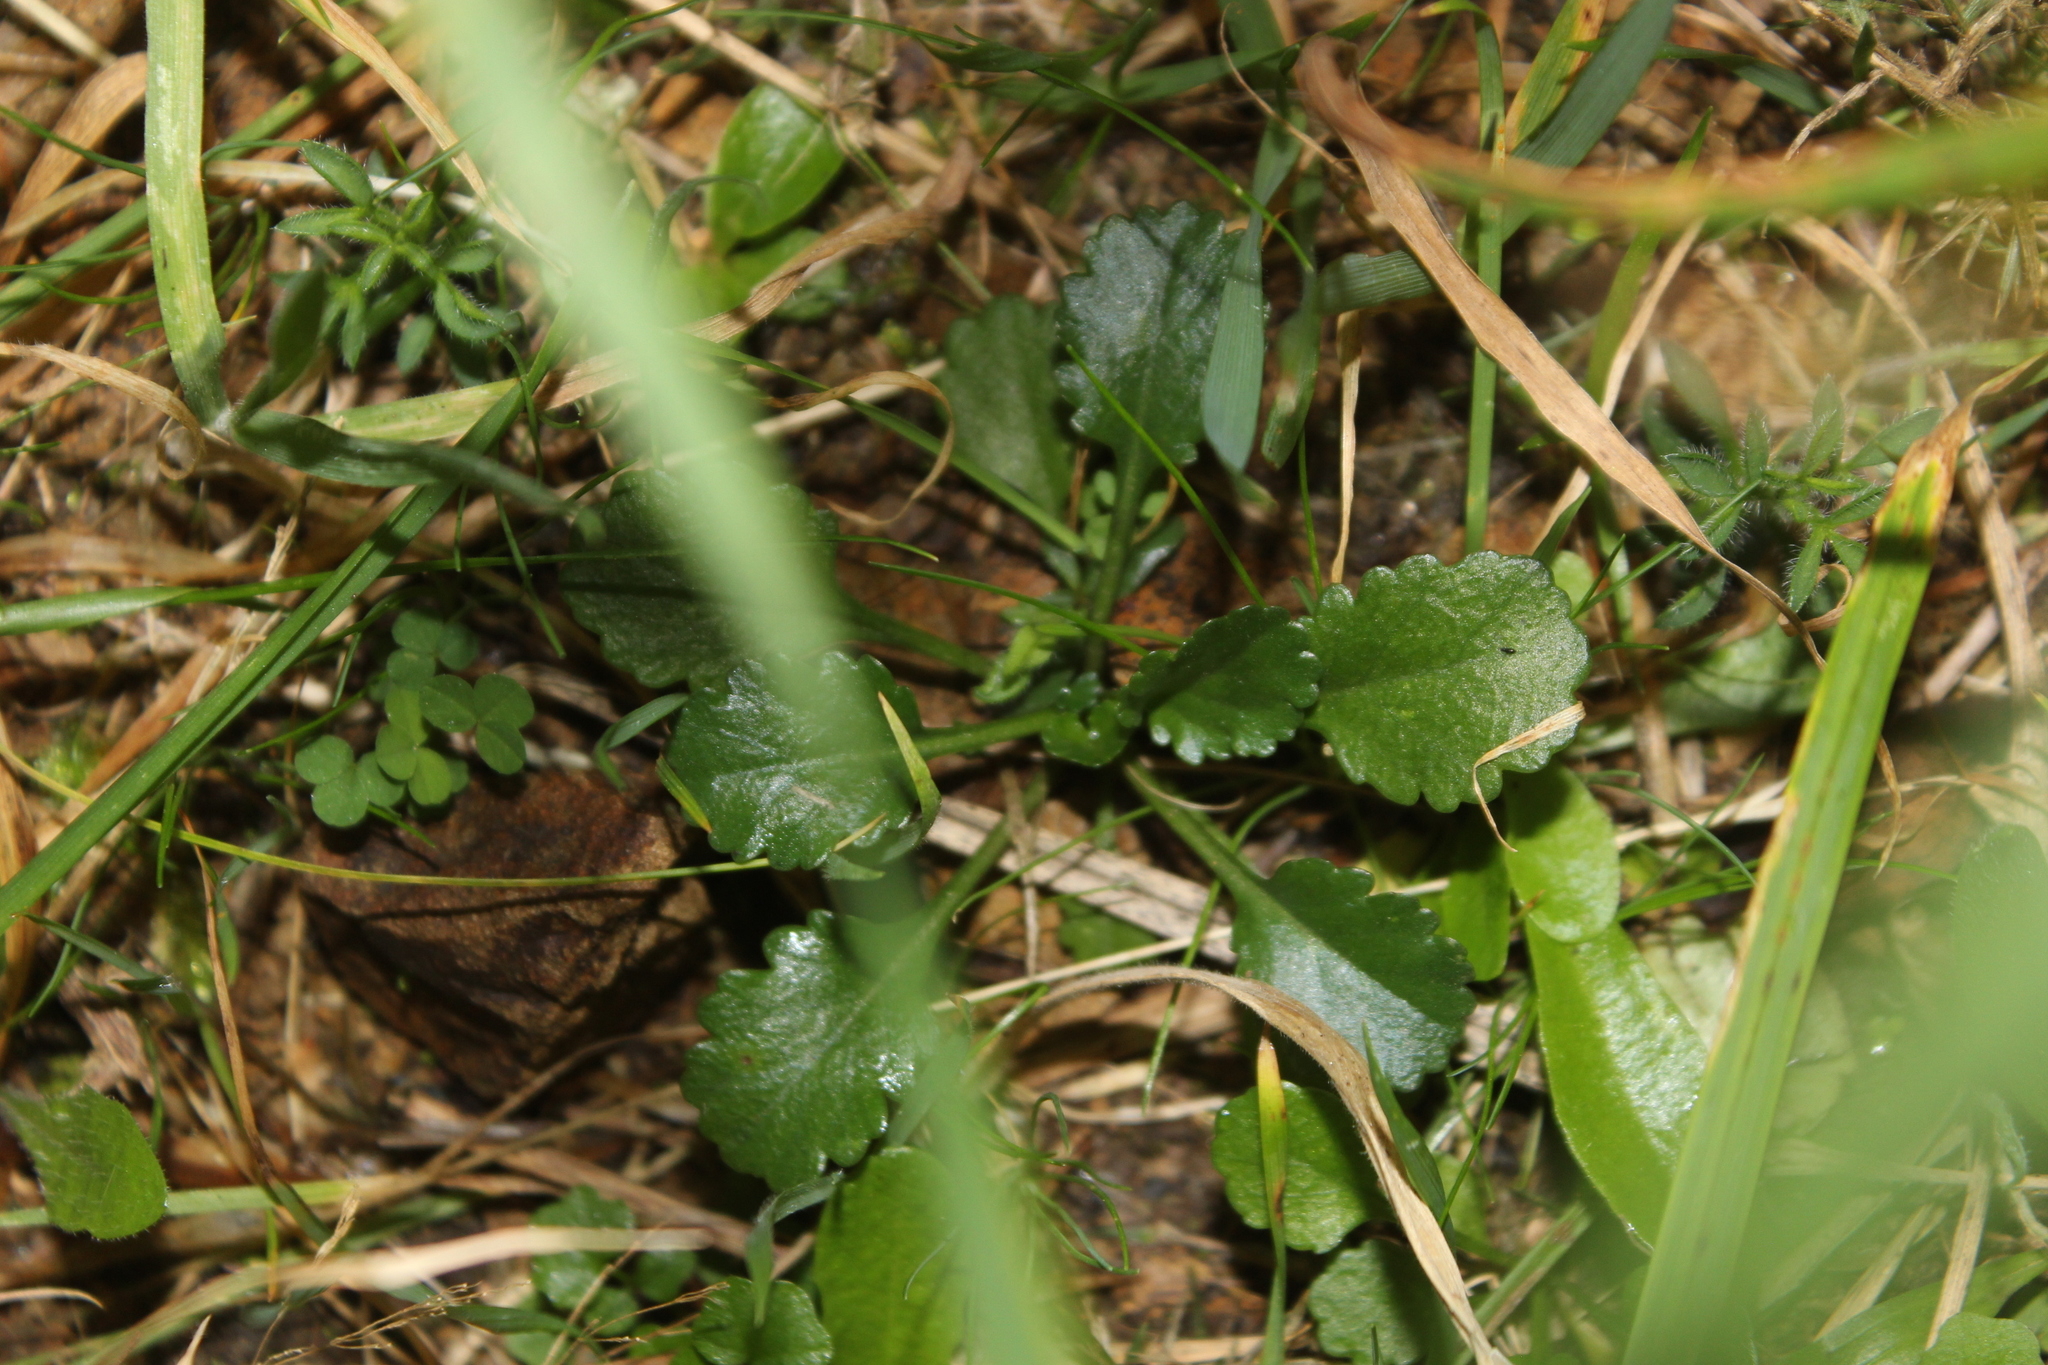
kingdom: Plantae
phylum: Tracheophyta
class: Magnoliopsida
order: Asterales
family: Asteraceae
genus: Leucanthemum
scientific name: Leucanthemum vulgare
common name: Oxeye daisy
